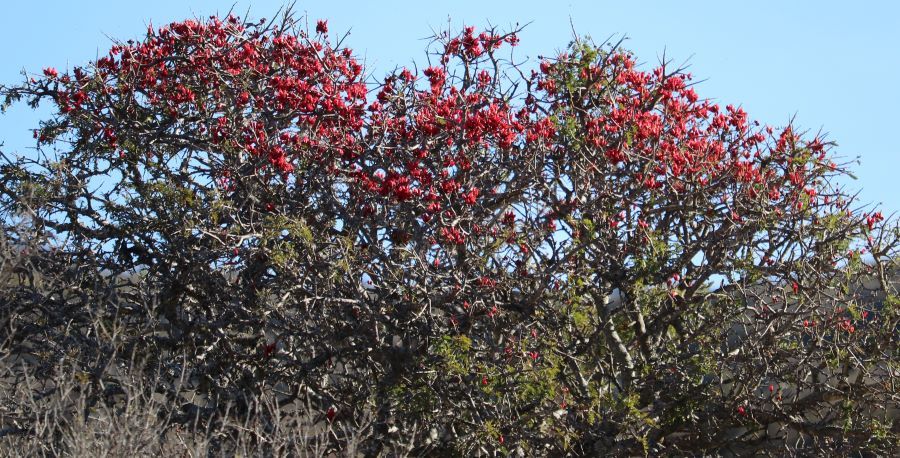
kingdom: Plantae
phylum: Tracheophyta
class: Magnoliopsida
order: Fabales
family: Fabaceae
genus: Schotia
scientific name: Schotia afra
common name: Hottentot's bean
